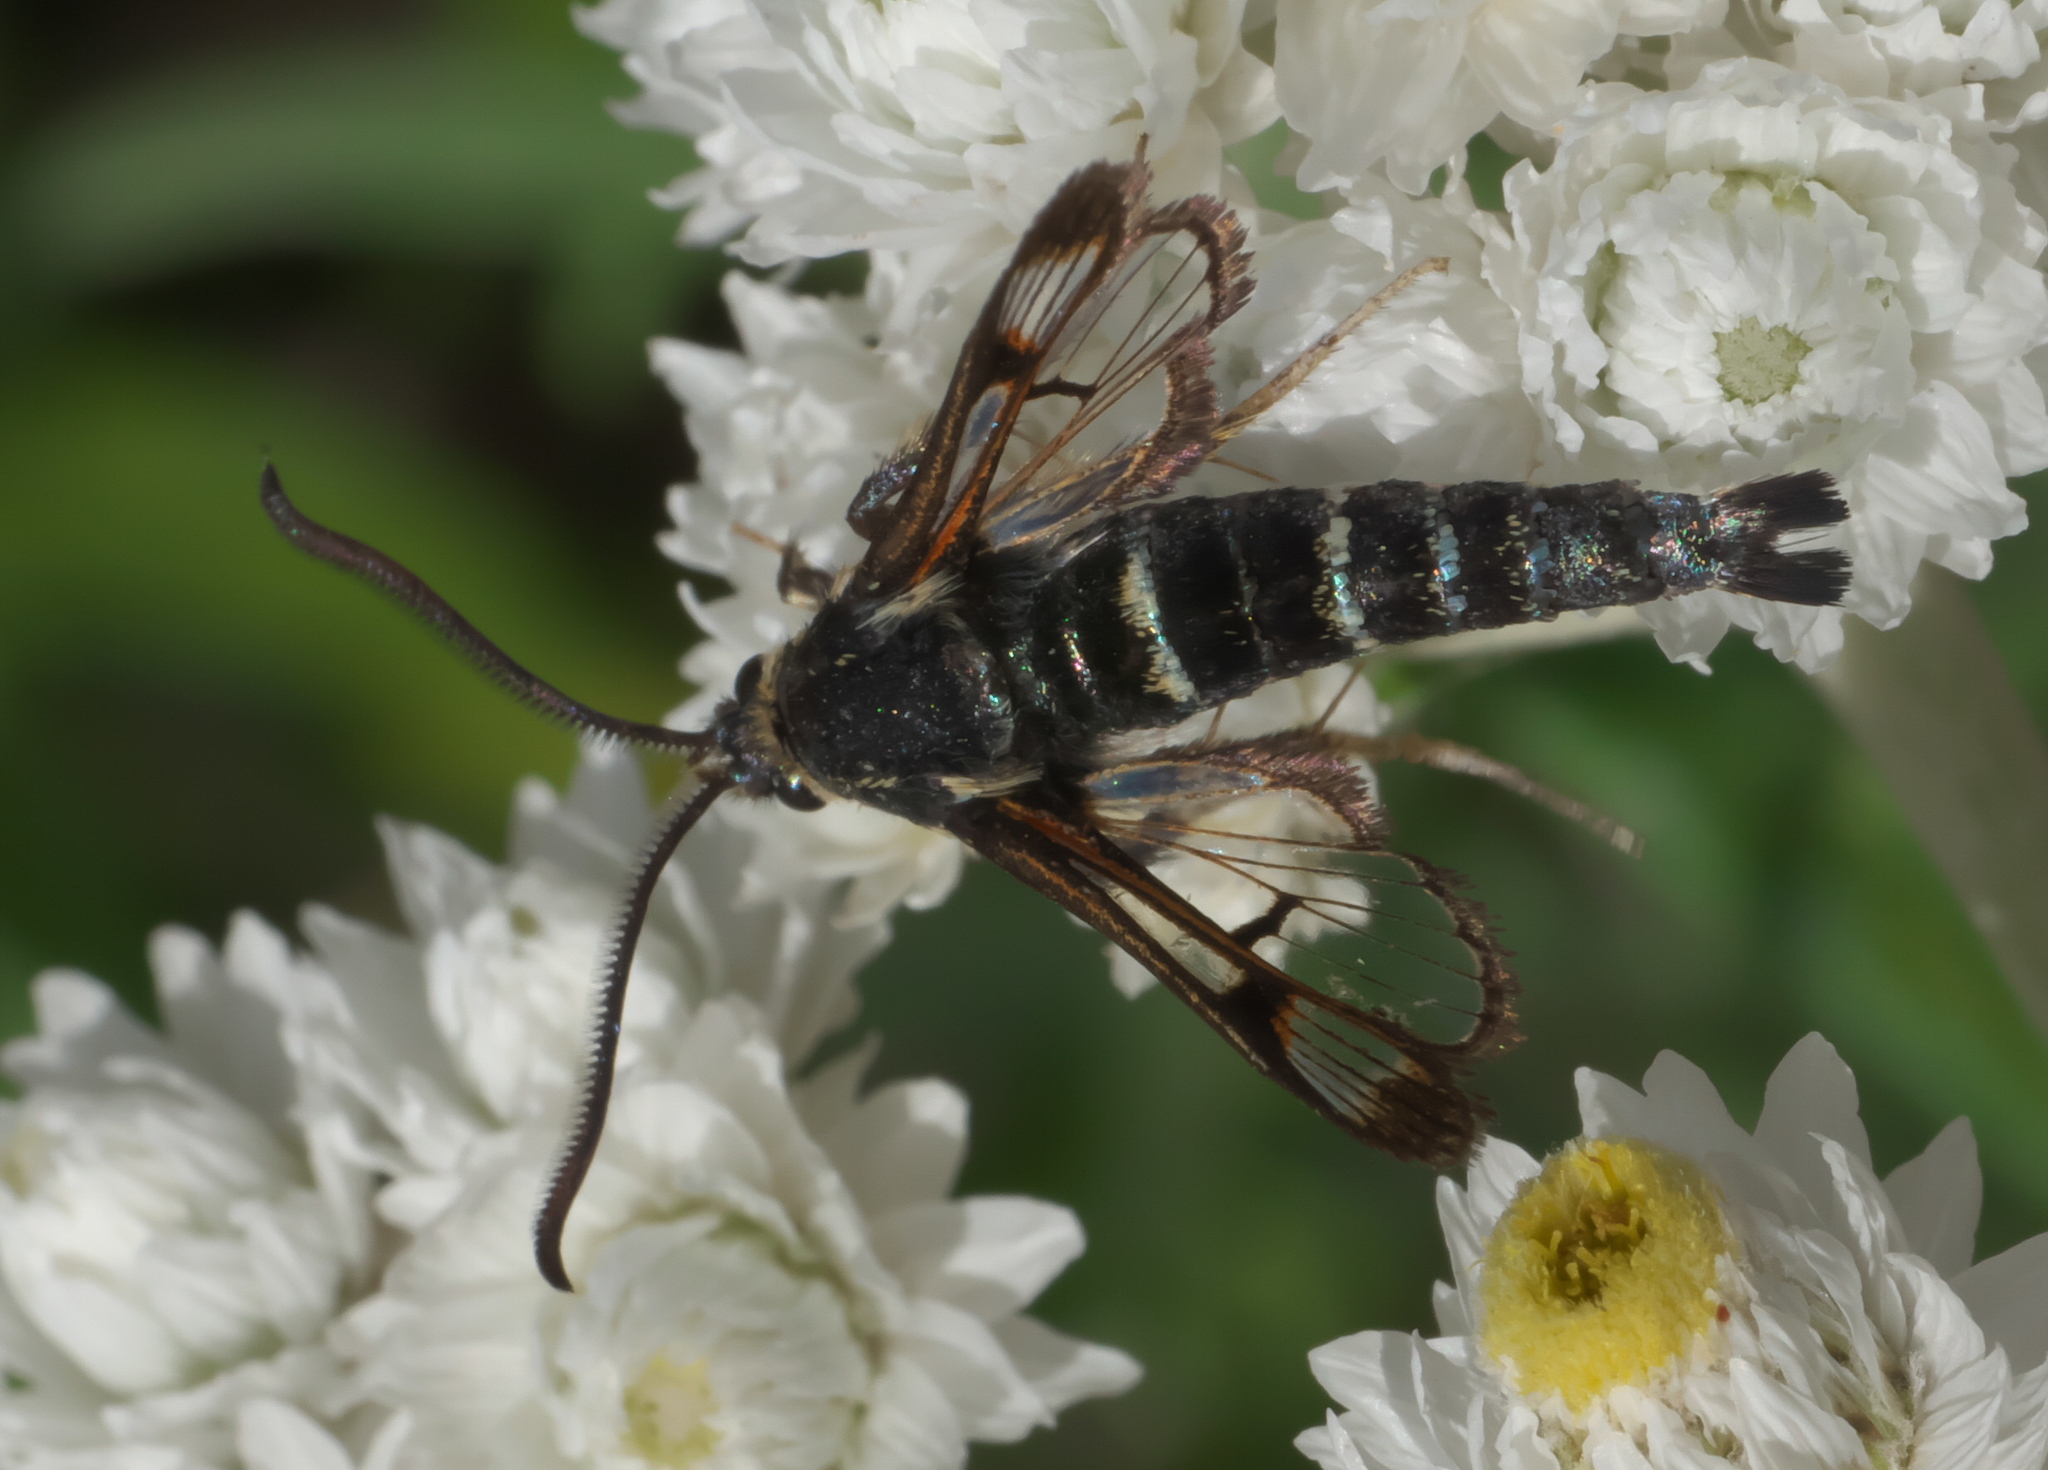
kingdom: Animalia
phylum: Arthropoda
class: Insecta
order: Lepidoptera
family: Sesiidae
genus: Albuna
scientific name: Albuna pyramidalis
